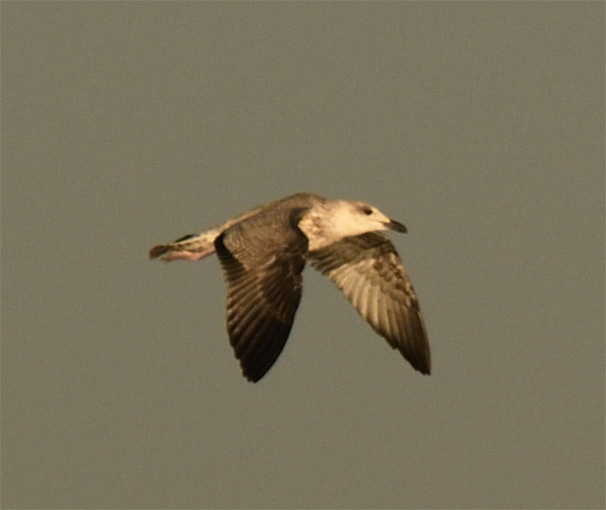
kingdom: Animalia
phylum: Chordata
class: Aves
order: Charadriiformes
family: Laridae
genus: Larus
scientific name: Larus armenicus
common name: Armenian gull
